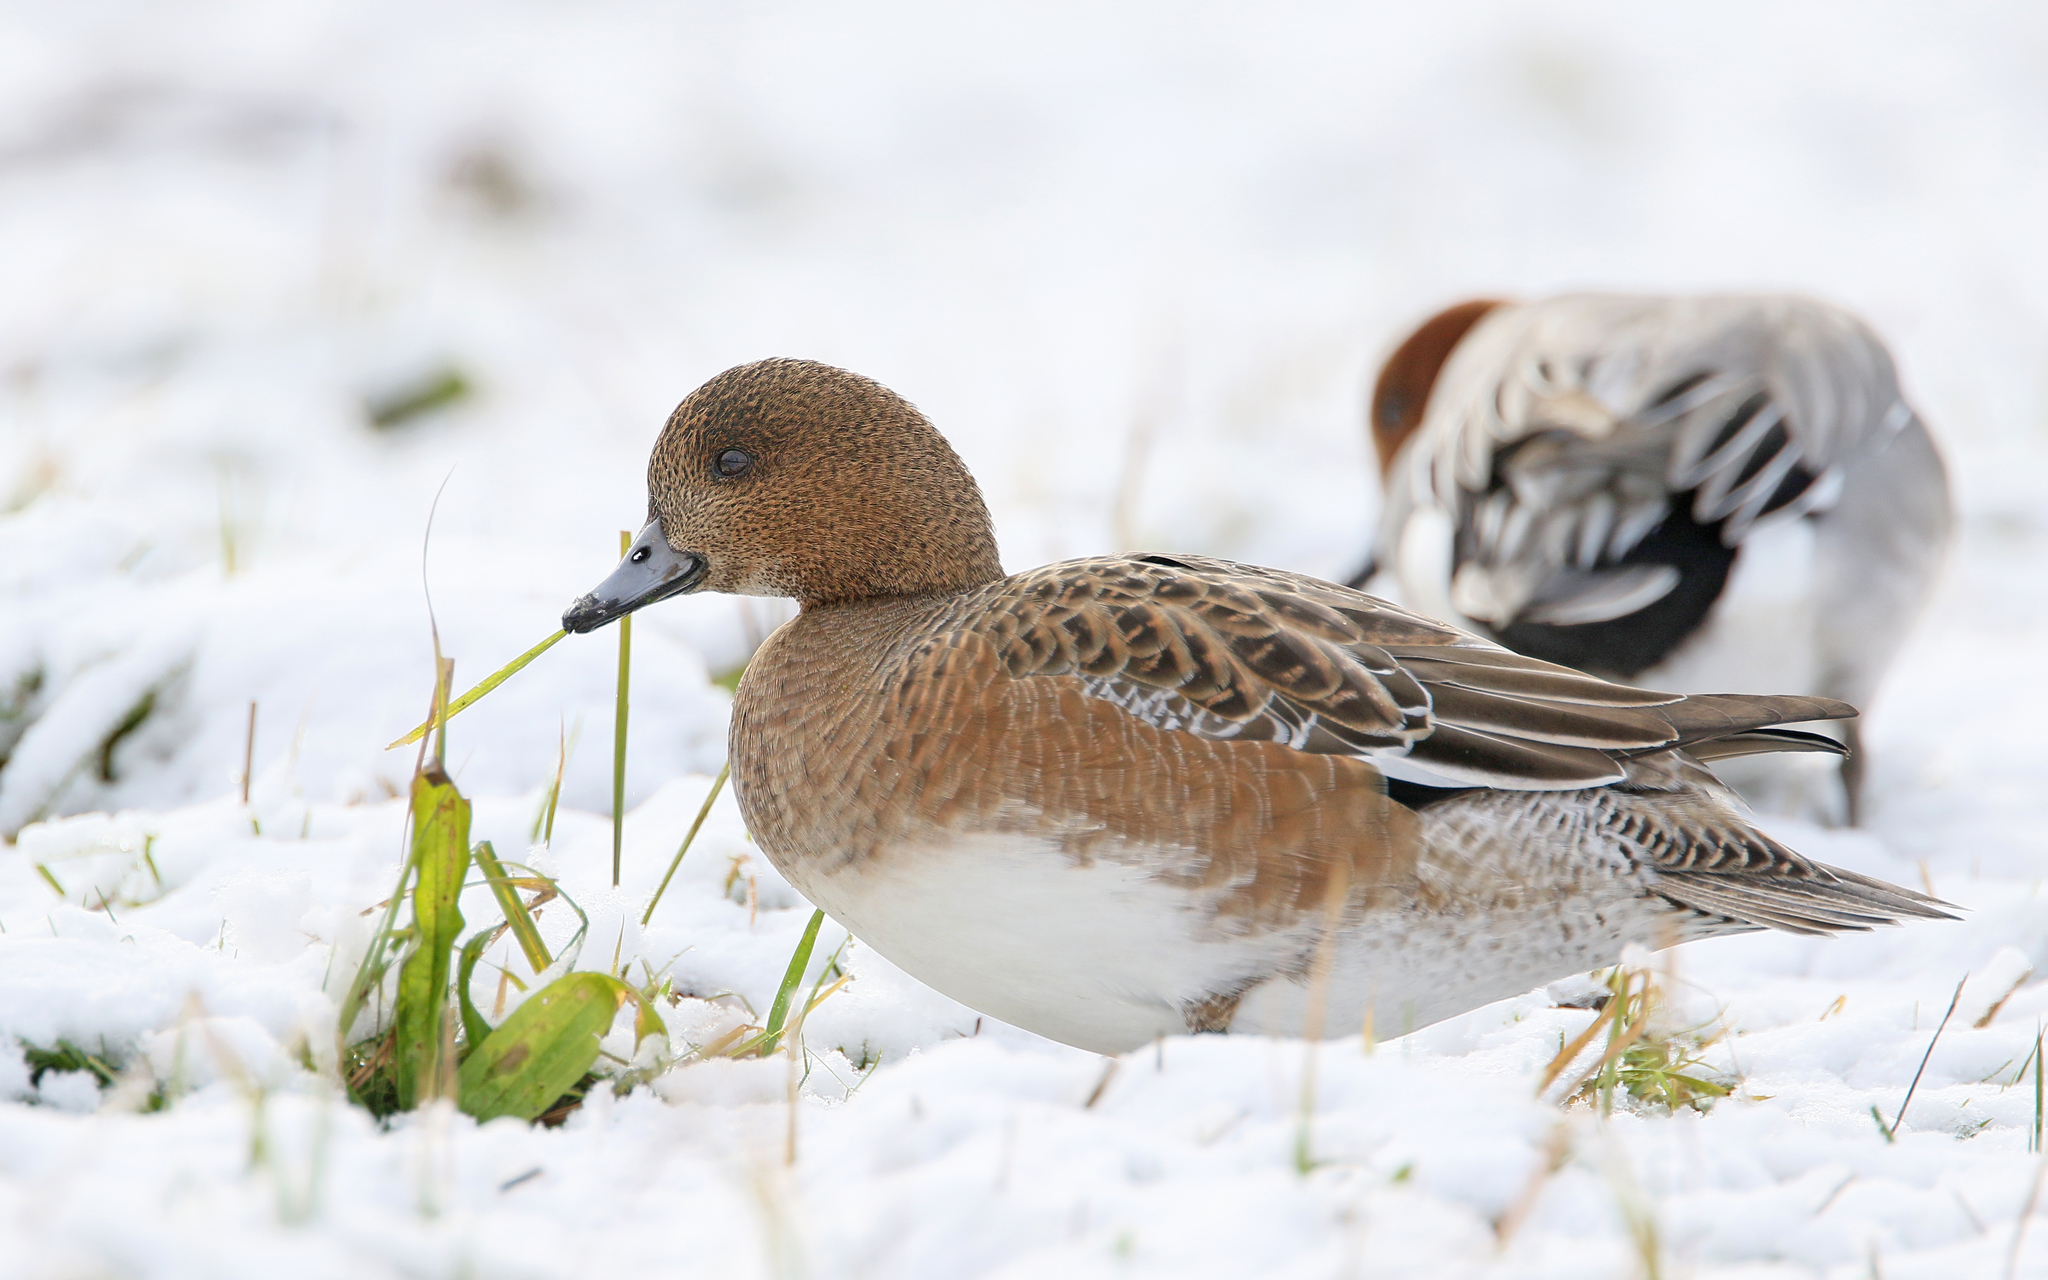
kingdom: Animalia
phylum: Chordata
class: Aves
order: Anseriformes
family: Anatidae
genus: Mareca
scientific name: Mareca penelope
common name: Eurasian wigeon
